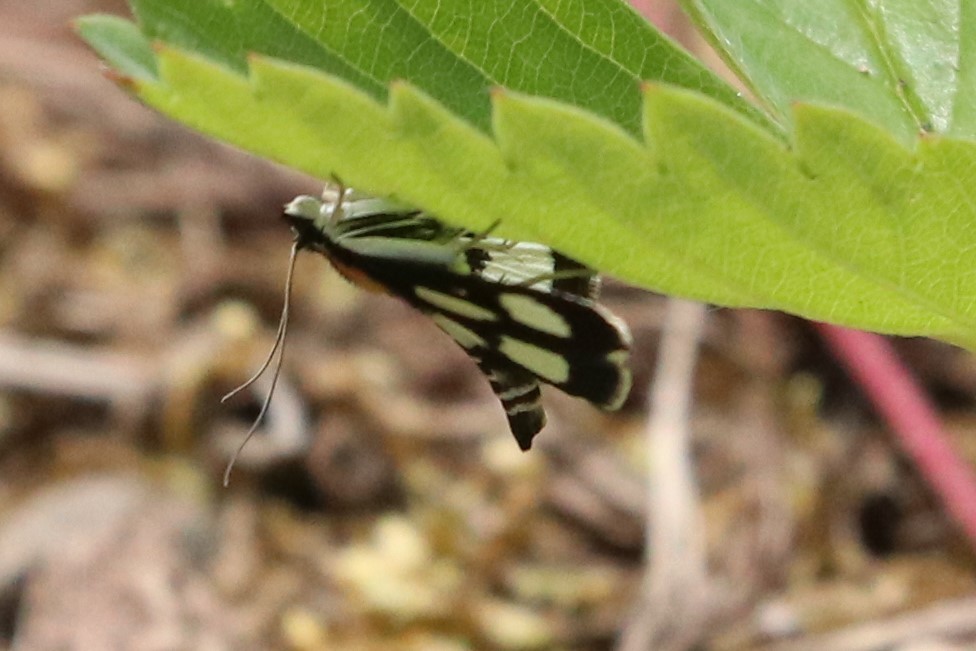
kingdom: Animalia
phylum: Arthropoda
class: Insecta
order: Lepidoptera
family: Crambidae
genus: Anania
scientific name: Anania funebris
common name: White-spotted sable moth
